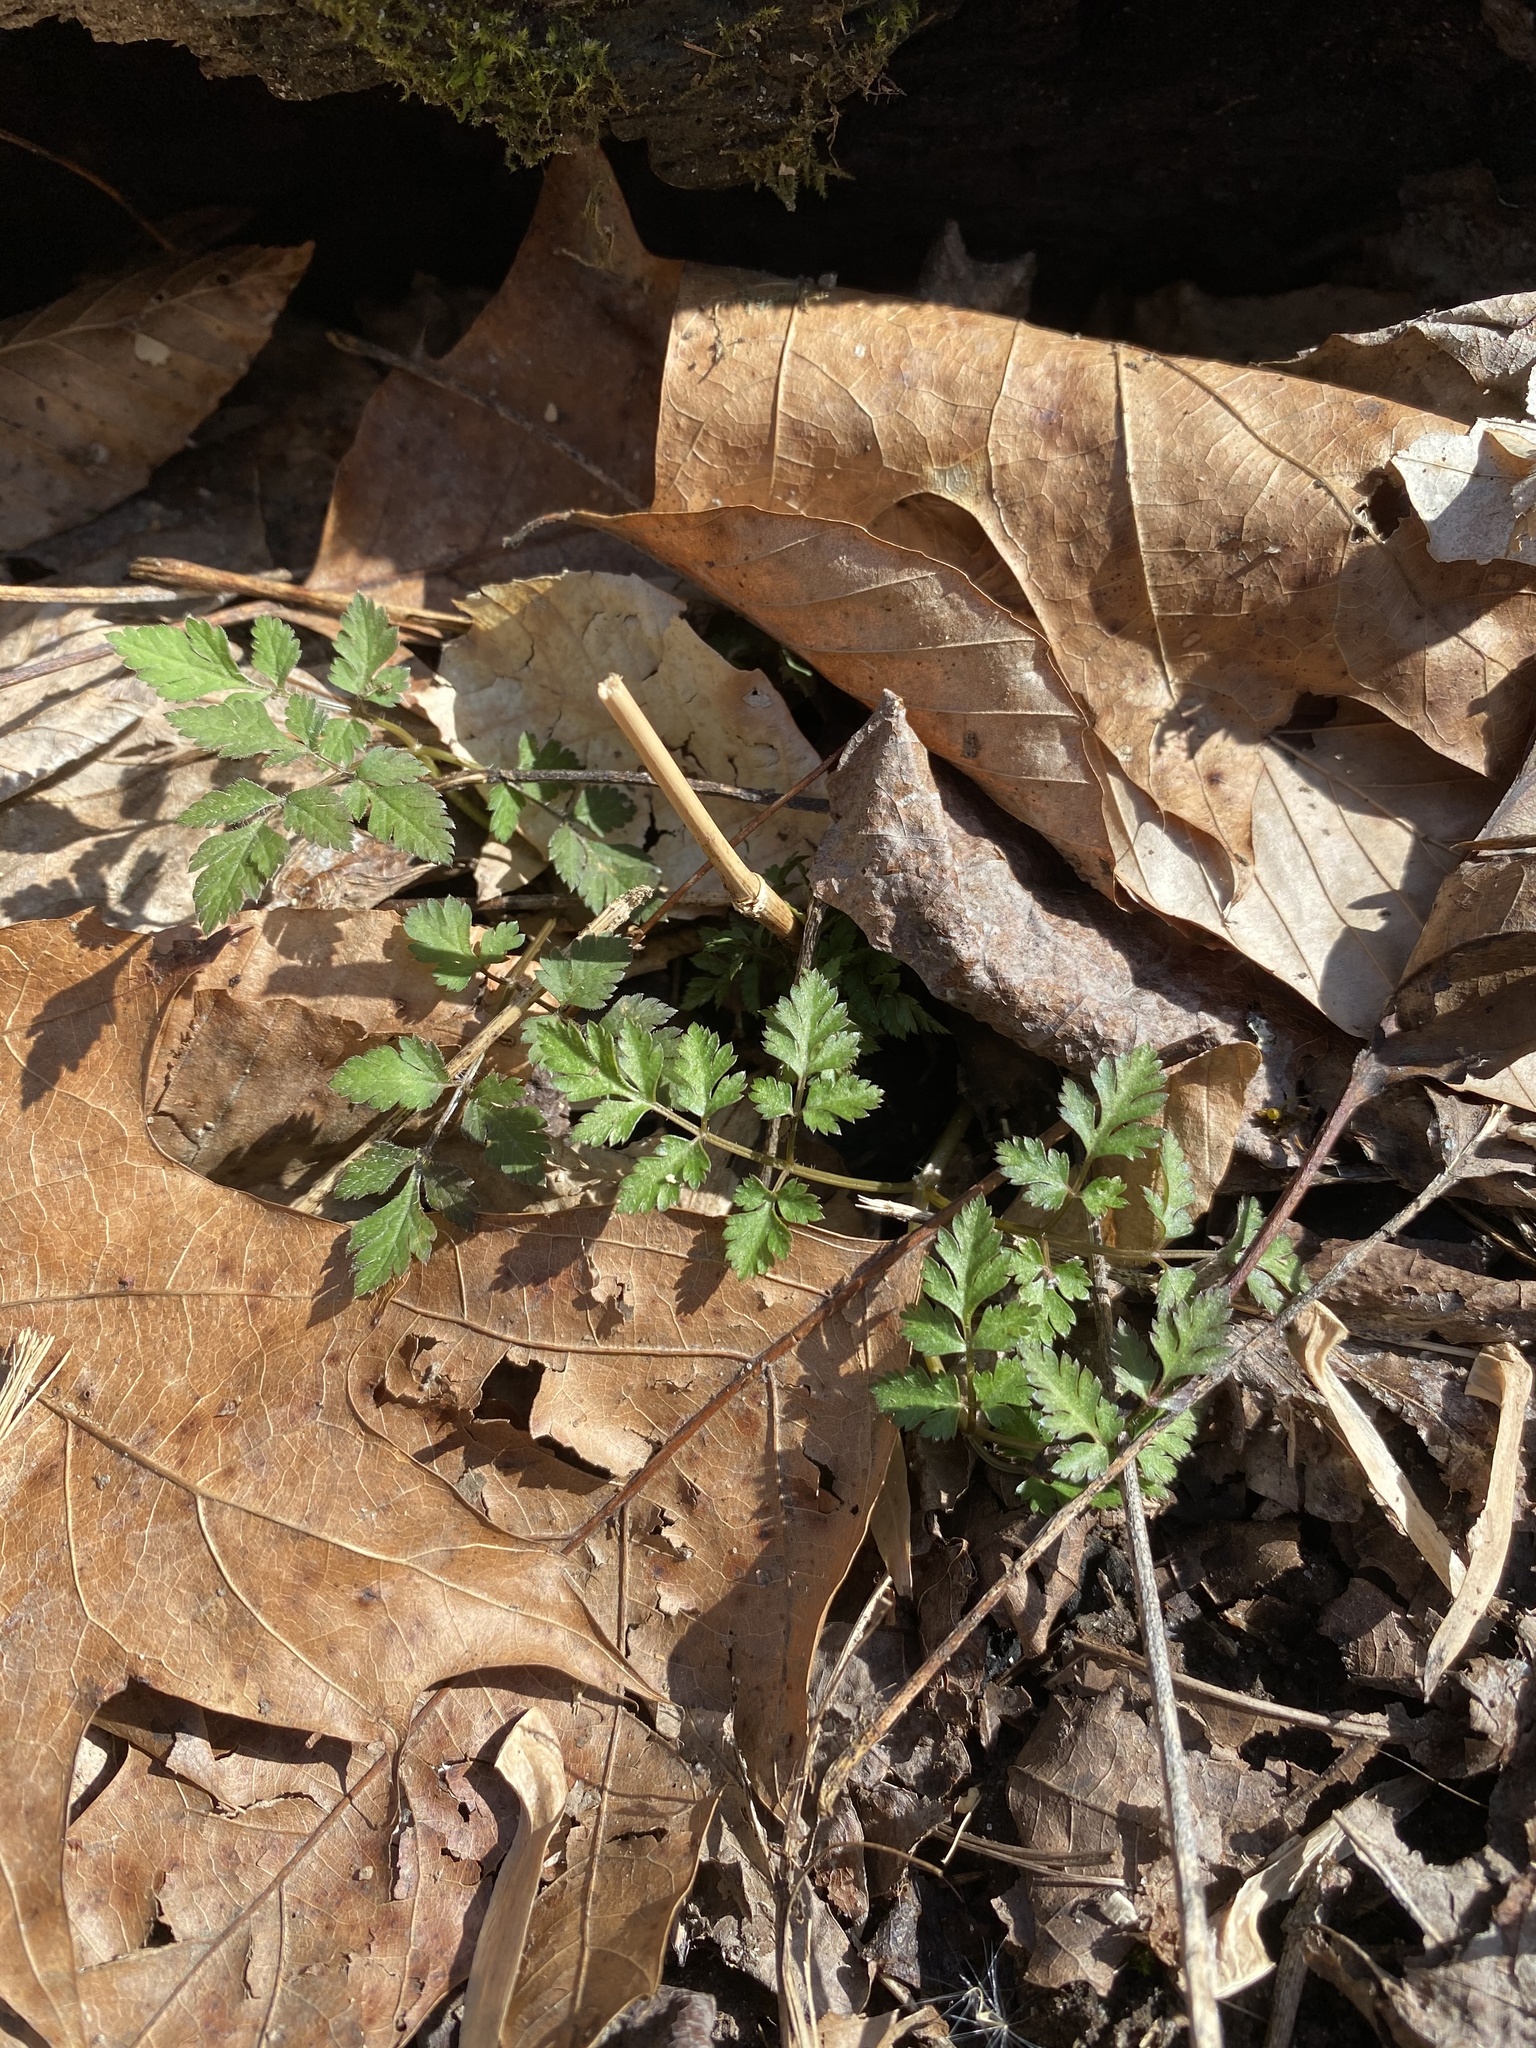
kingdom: Plantae
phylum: Tracheophyta
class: Magnoliopsida
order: Apiales
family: Apiaceae
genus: Osmorhiza
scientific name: Osmorhiza claytonii
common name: Hairy sweet cicely
